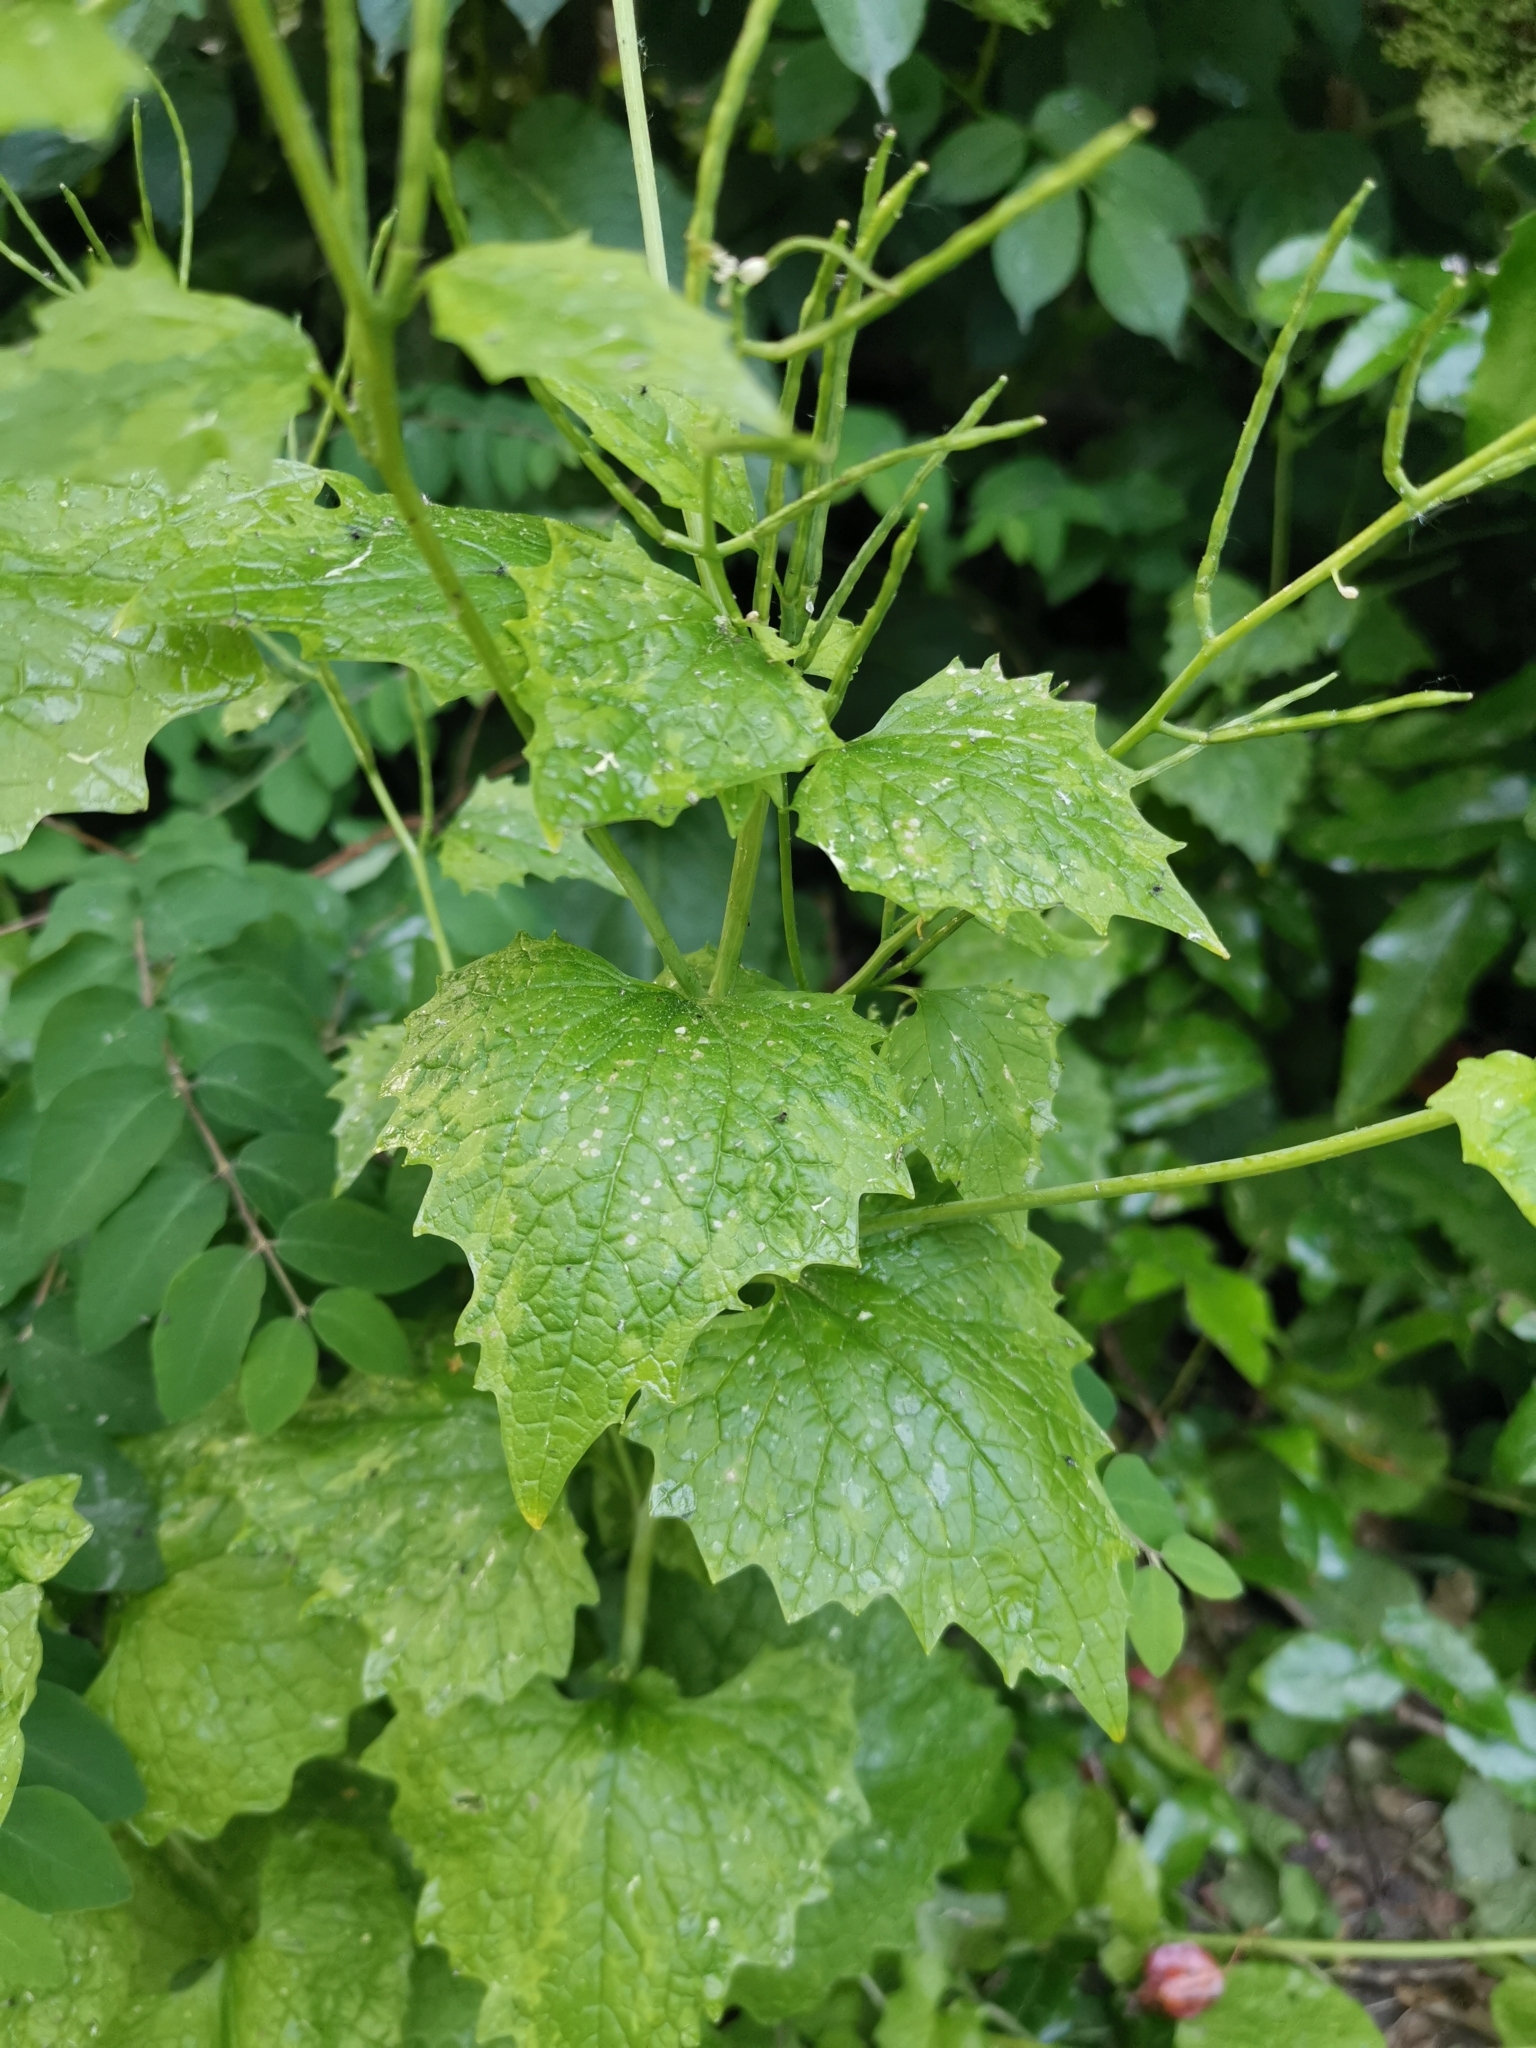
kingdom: Plantae
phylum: Tracheophyta
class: Magnoliopsida
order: Brassicales
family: Brassicaceae
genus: Alliaria
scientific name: Alliaria petiolata
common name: Garlic mustard
